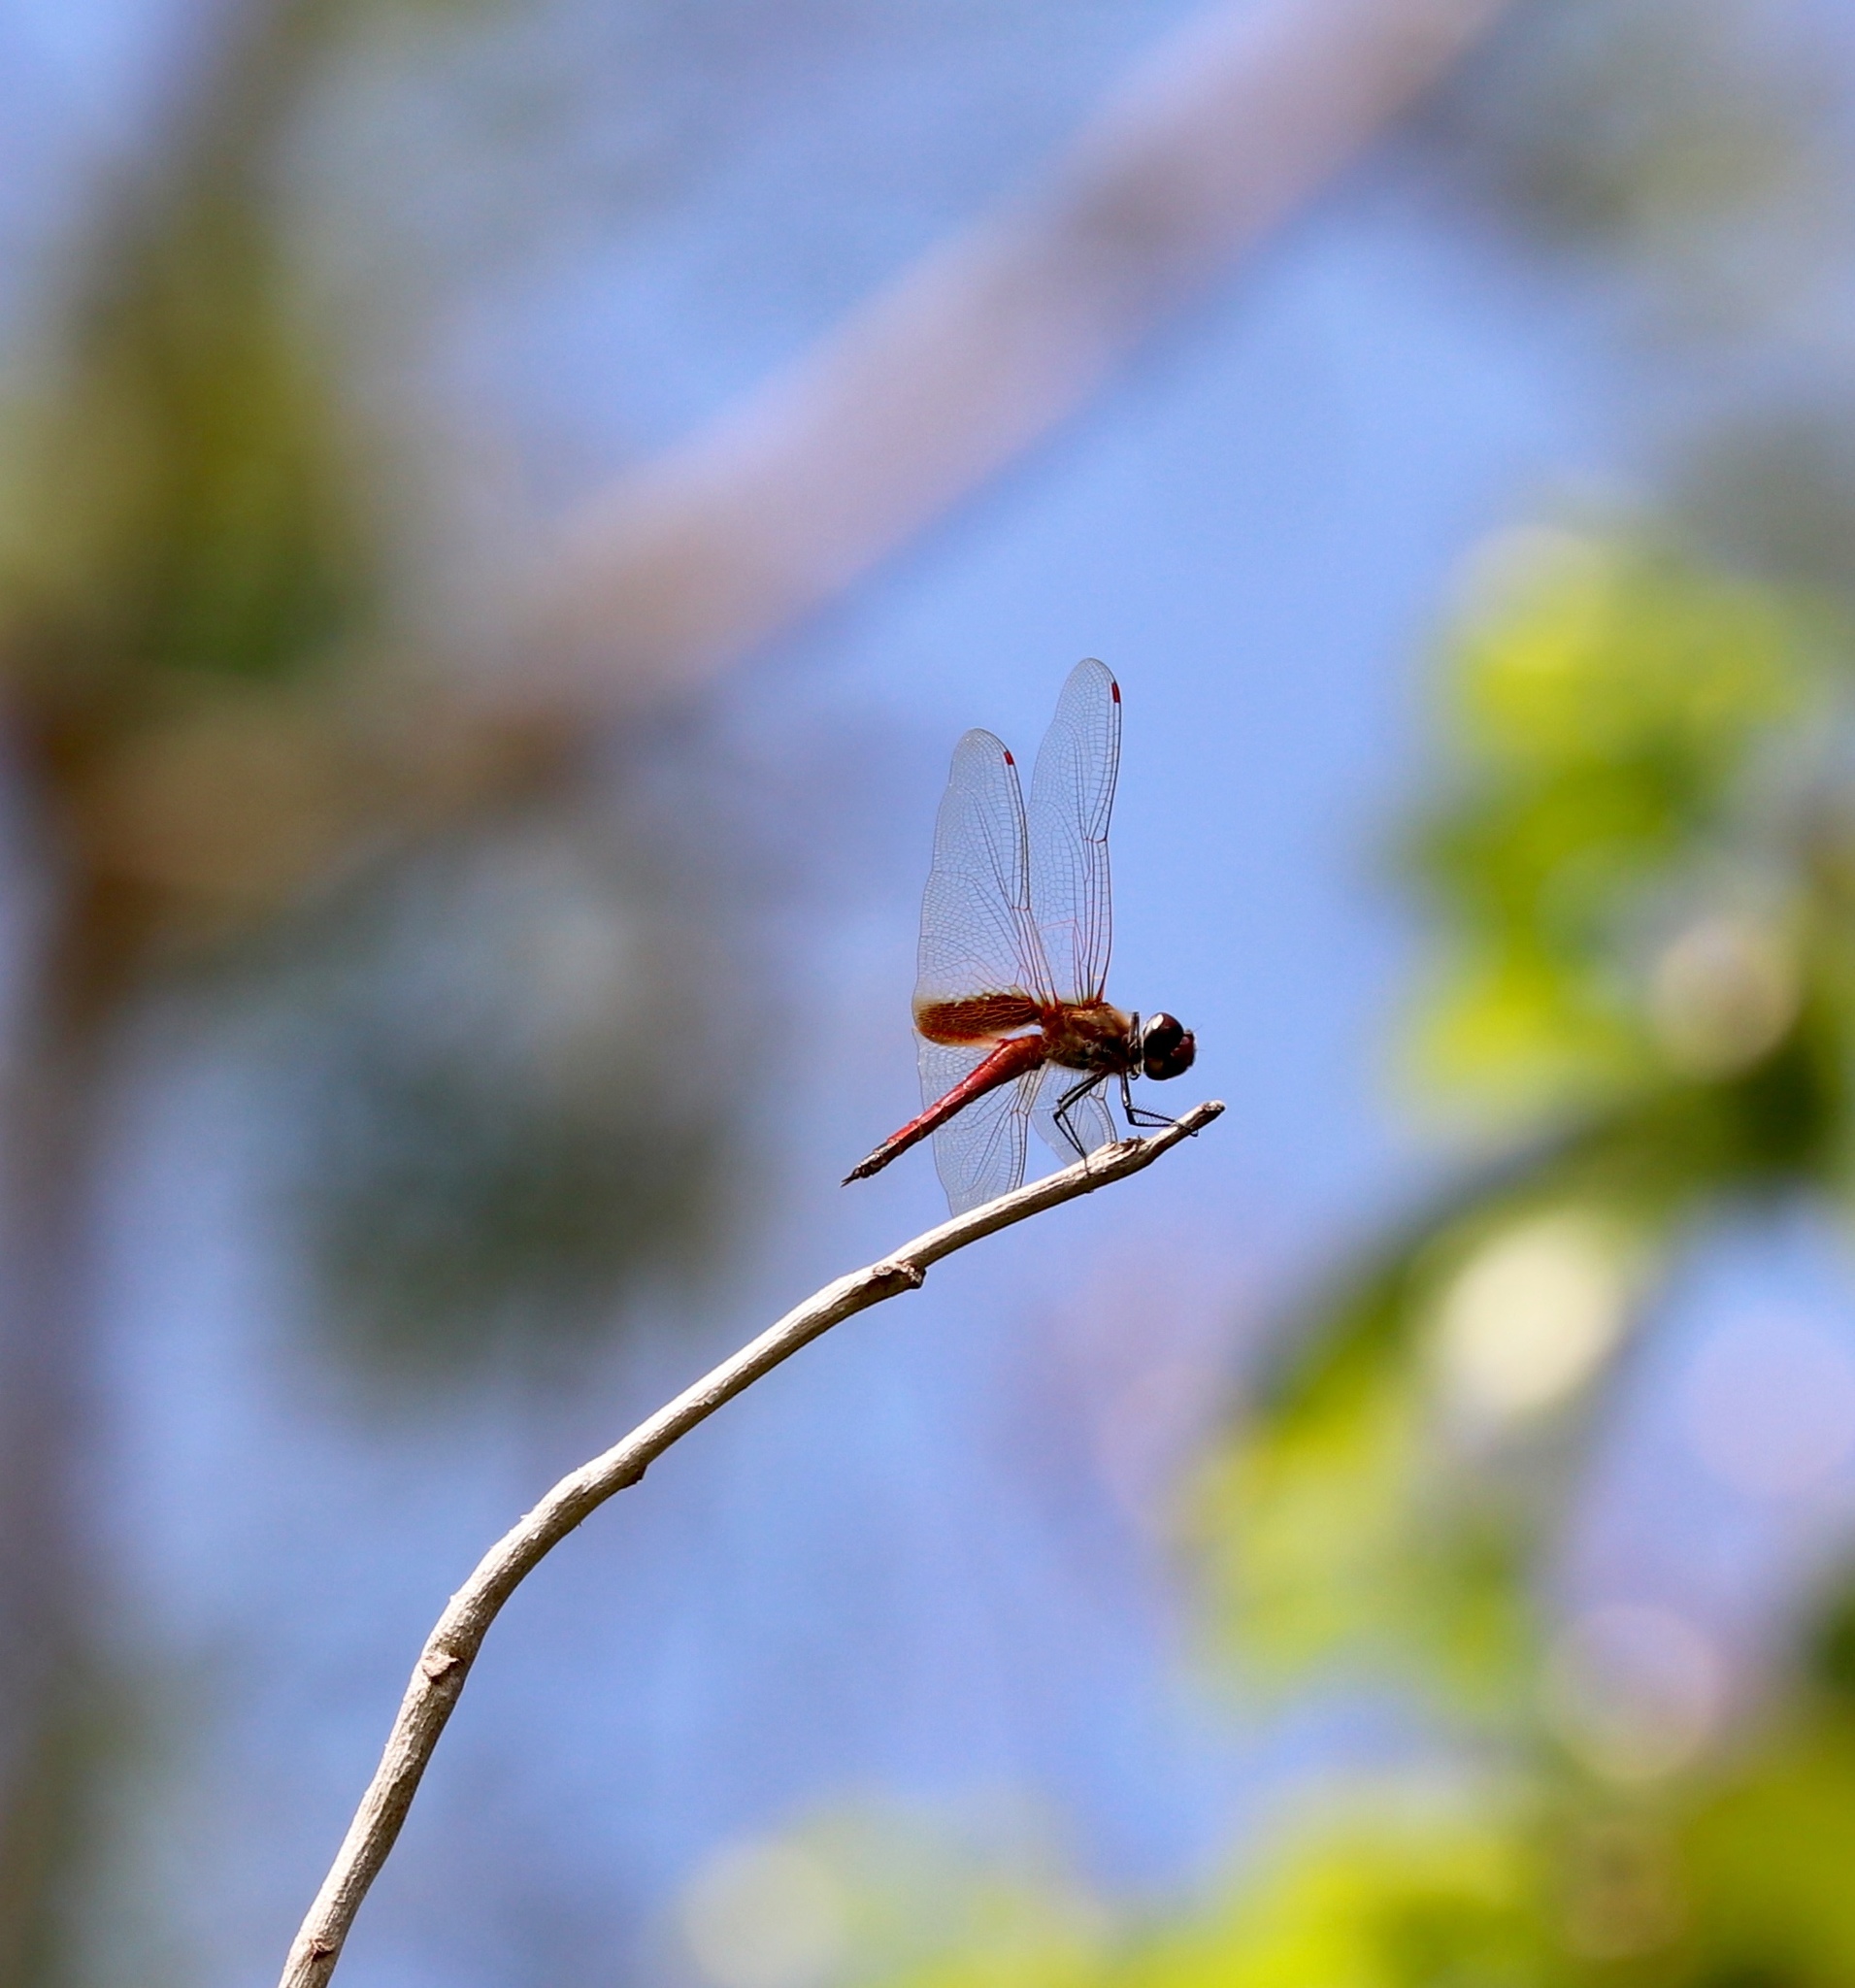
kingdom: Animalia
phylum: Arthropoda
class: Insecta
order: Odonata
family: Libellulidae
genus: Tramea
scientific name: Tramea darwini
